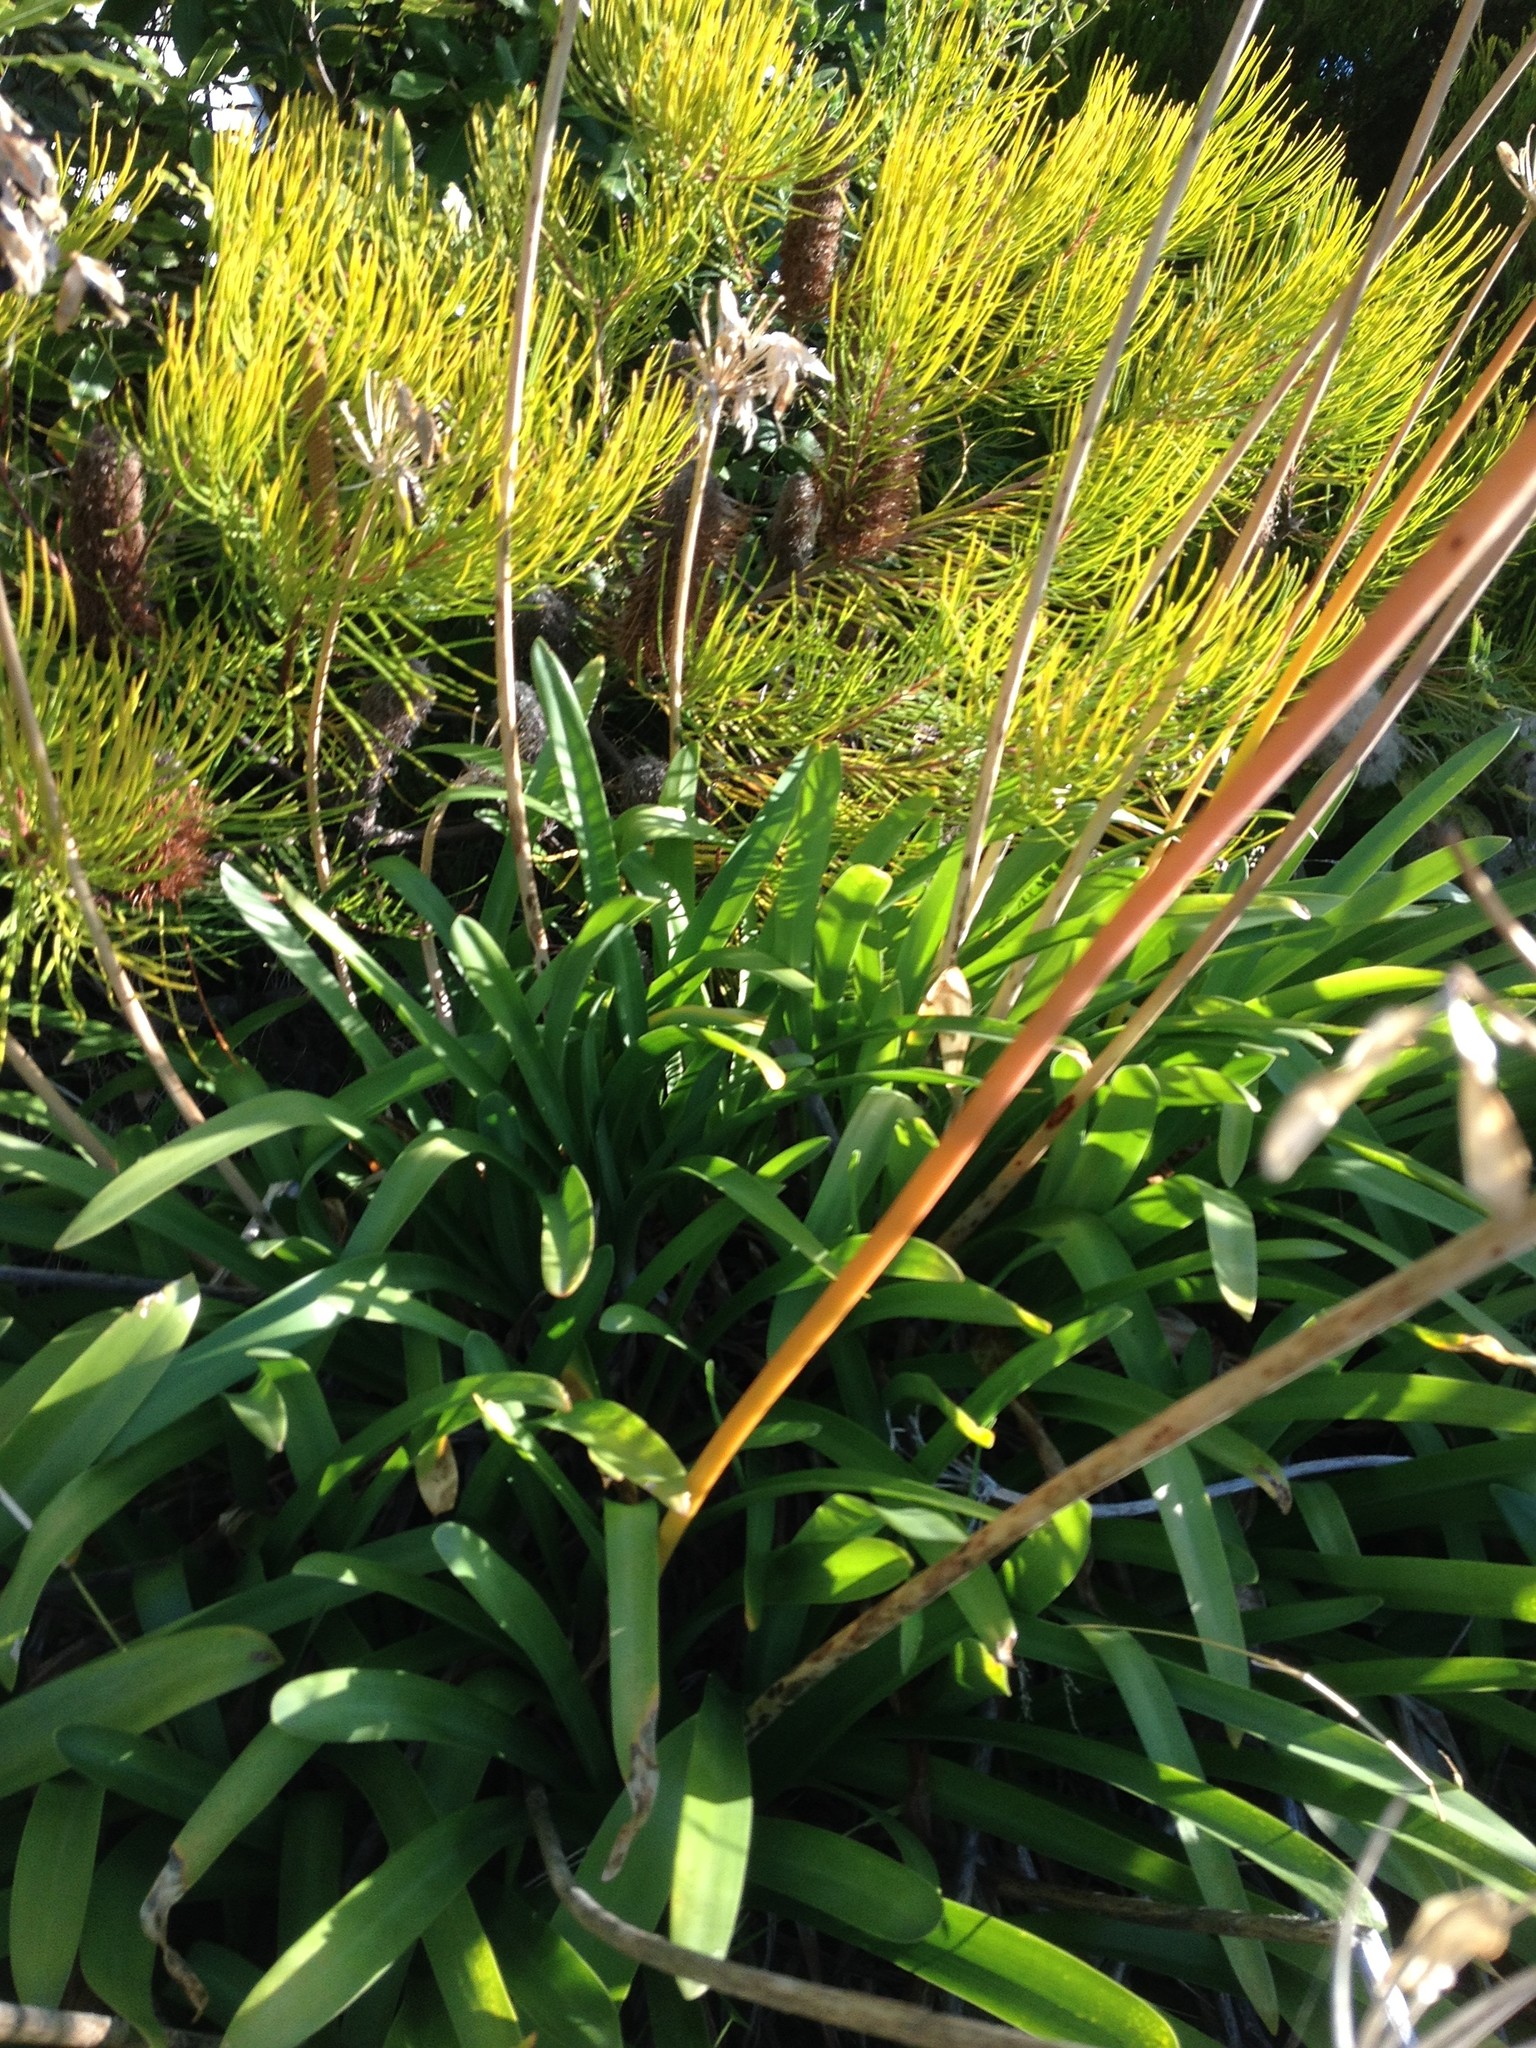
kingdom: Plantae
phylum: Tracheophyta
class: Liliopsida
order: Asparagales
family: Amaryllidaceae
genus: Agapanthus
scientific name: Agapanthus praecox
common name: African-lily
